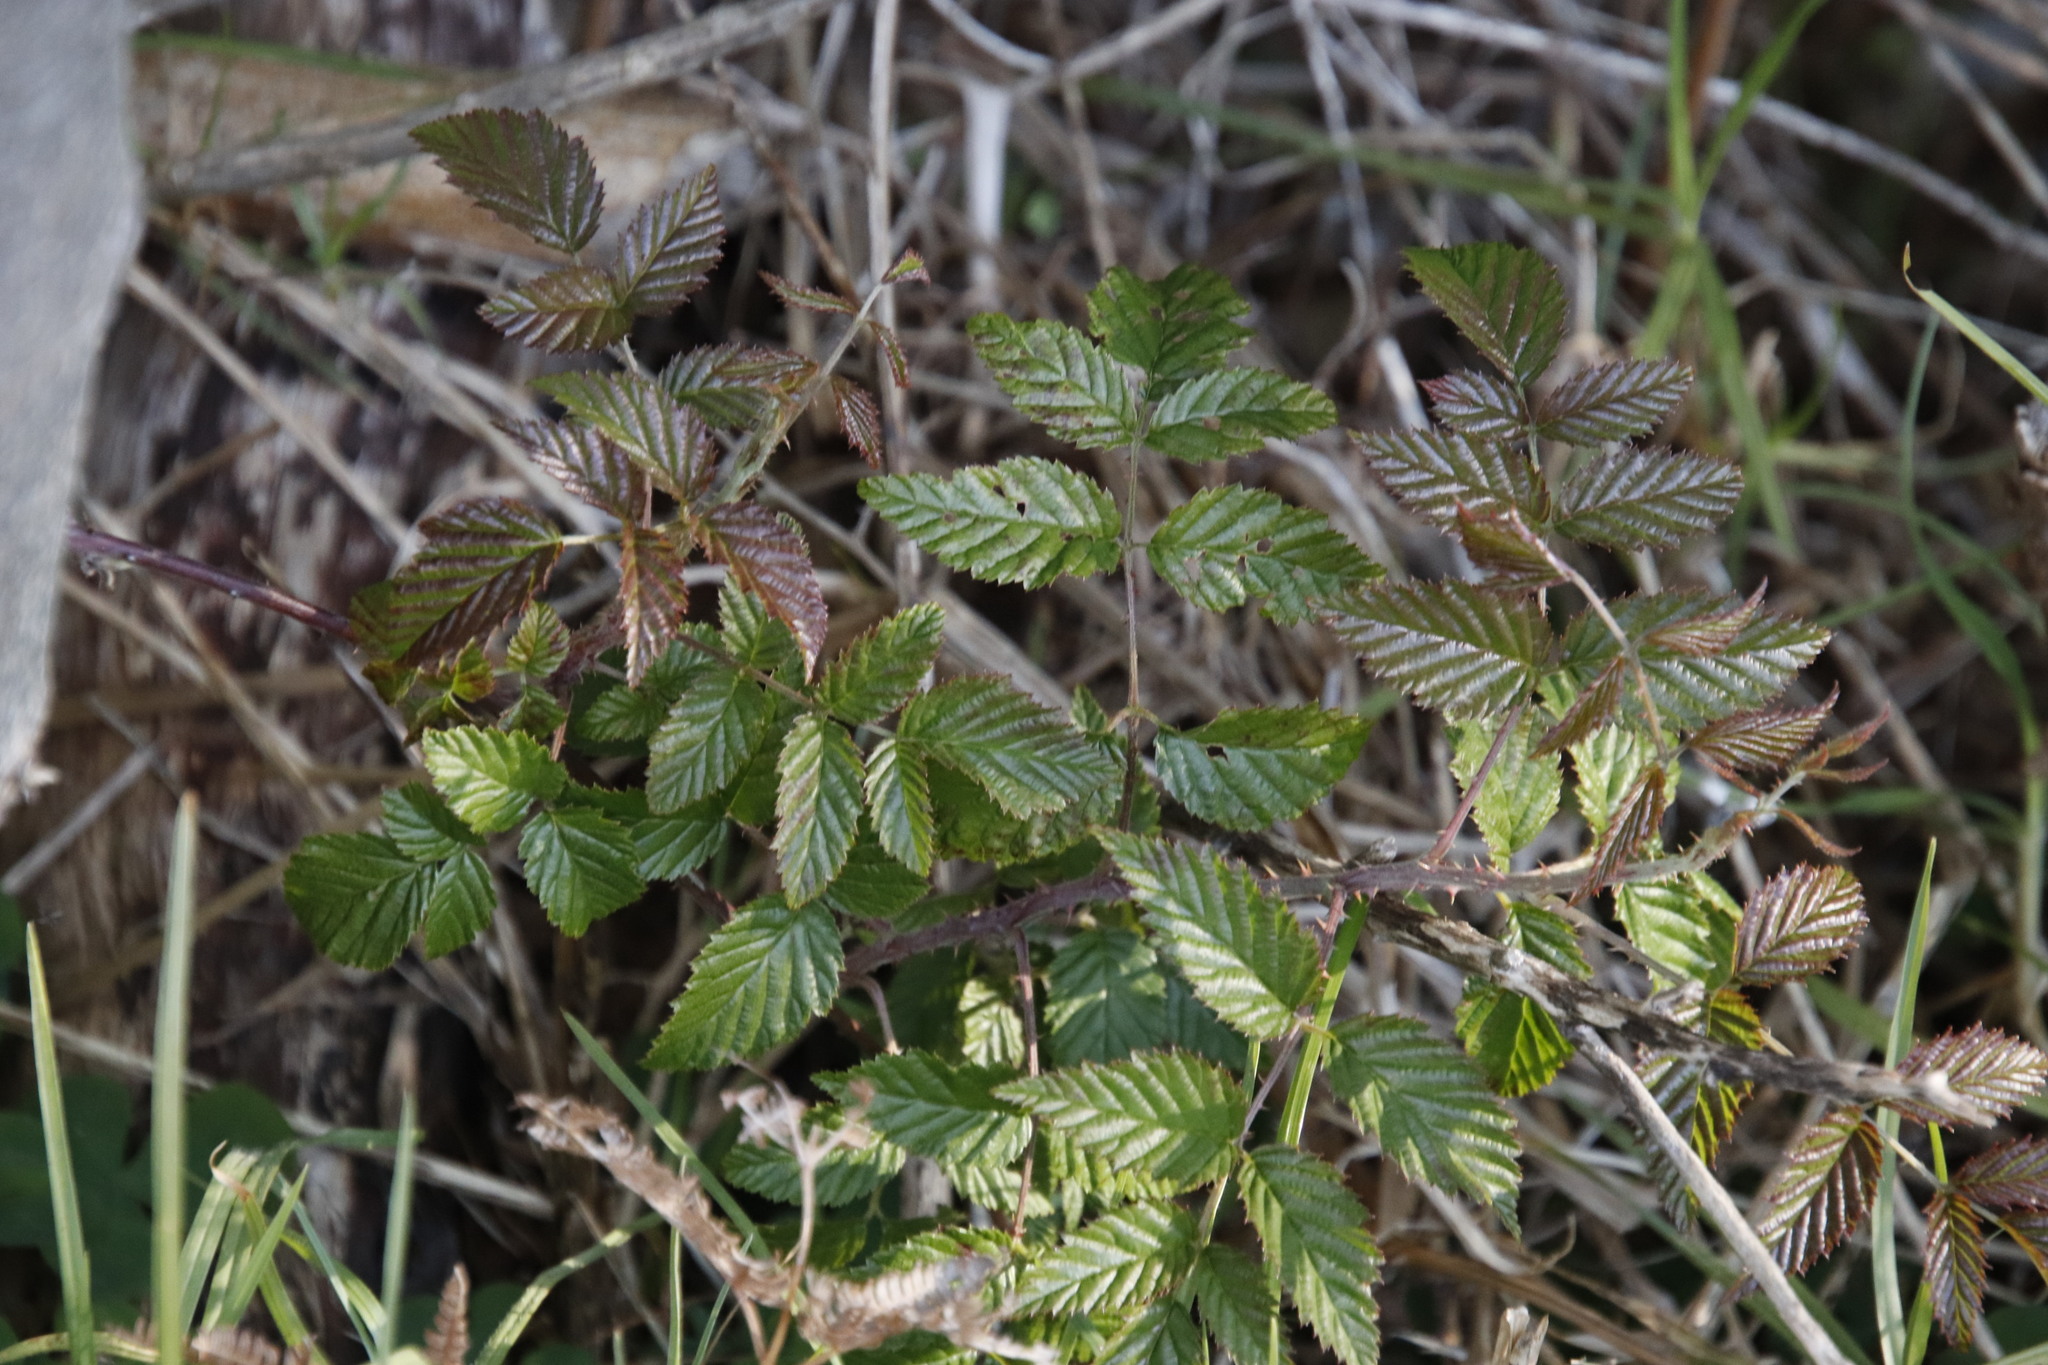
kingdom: Plantae
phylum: Tracheophyta
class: Magnoliopsida
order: Rosales
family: Rosaceae
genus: Rubus
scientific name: Rubus pinnatus
